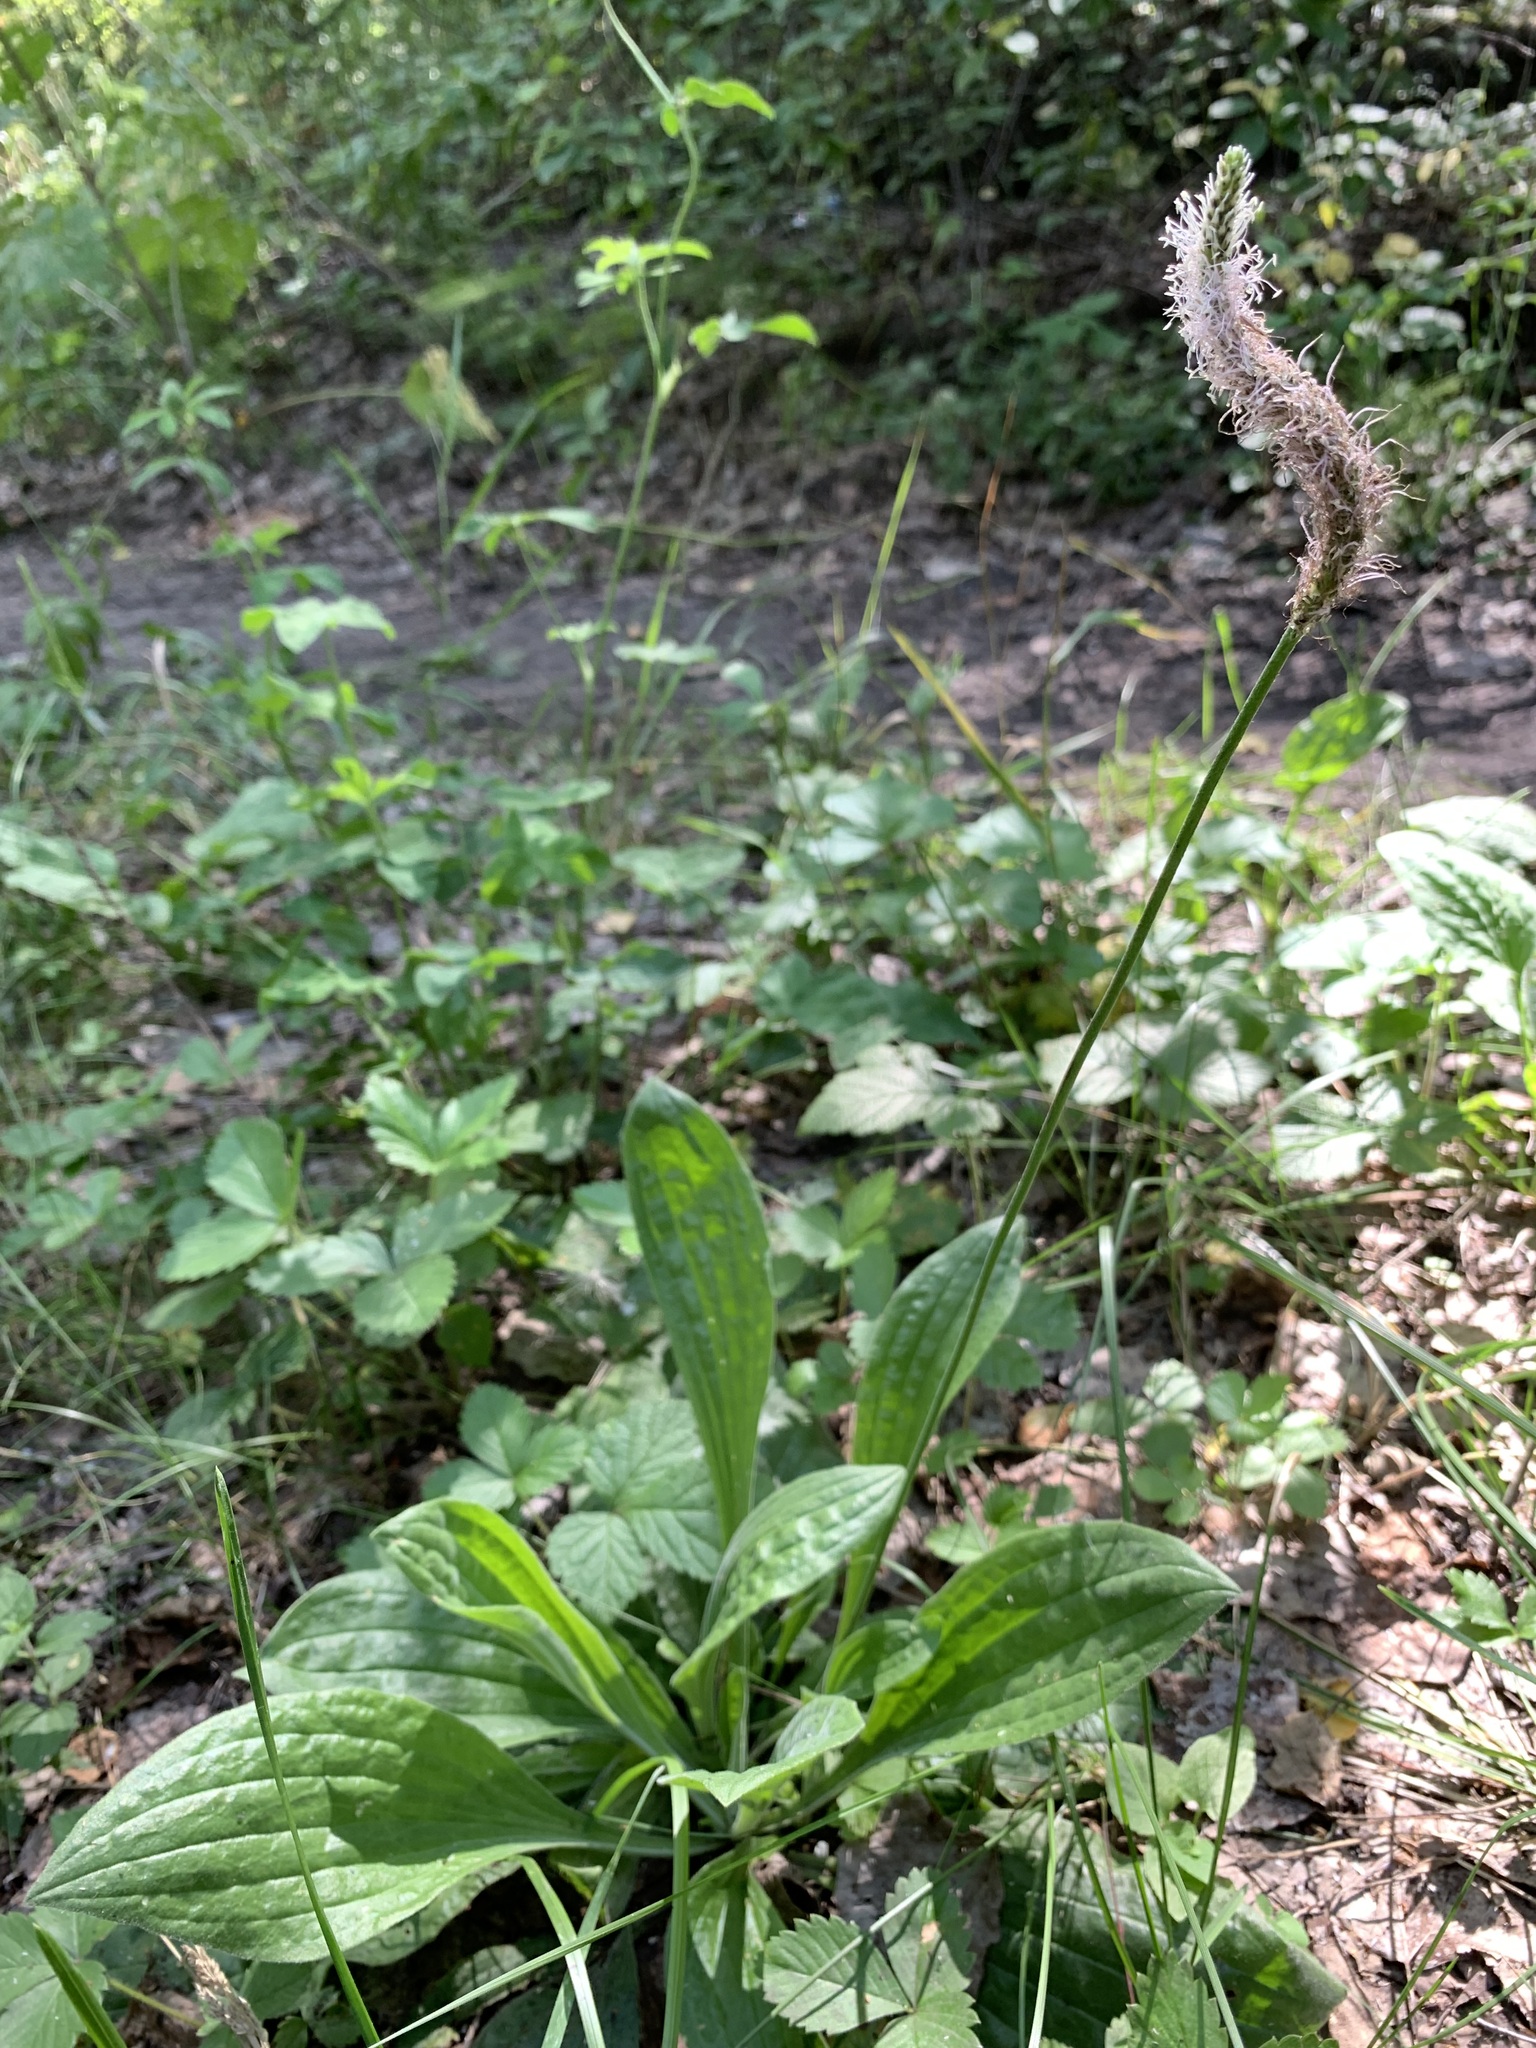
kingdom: Plantae
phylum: Tracheophyta
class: Magnoliopsida
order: Lamiales
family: Plantaginaceae
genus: Plantago
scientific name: Plantago urvillei
